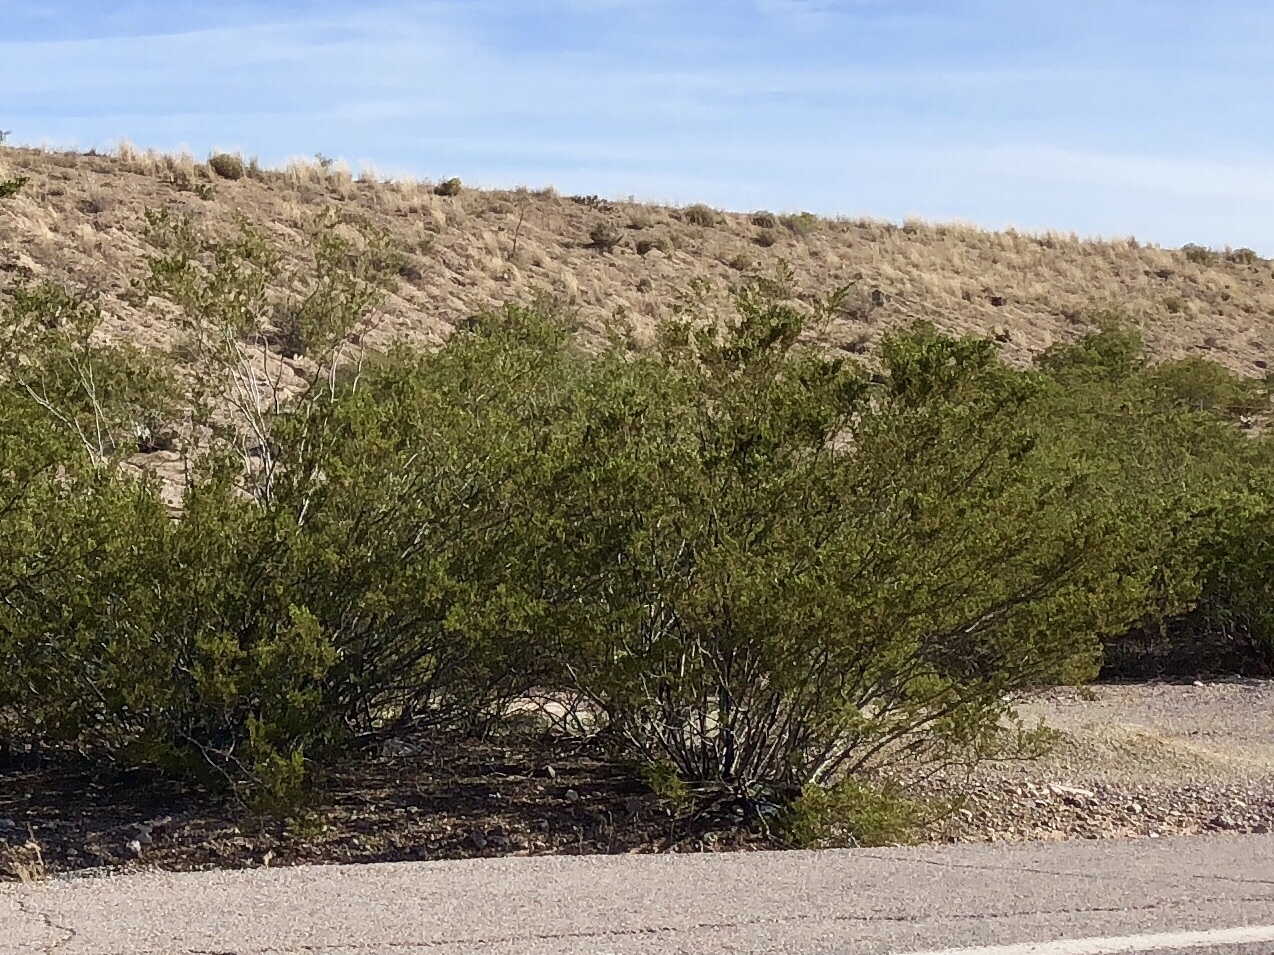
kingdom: Plantae
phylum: Tracheophyta
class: Magnoliopsida
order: Zygophyllales
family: Zygophyllaceae
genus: Larrea
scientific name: Larrea tridentata
